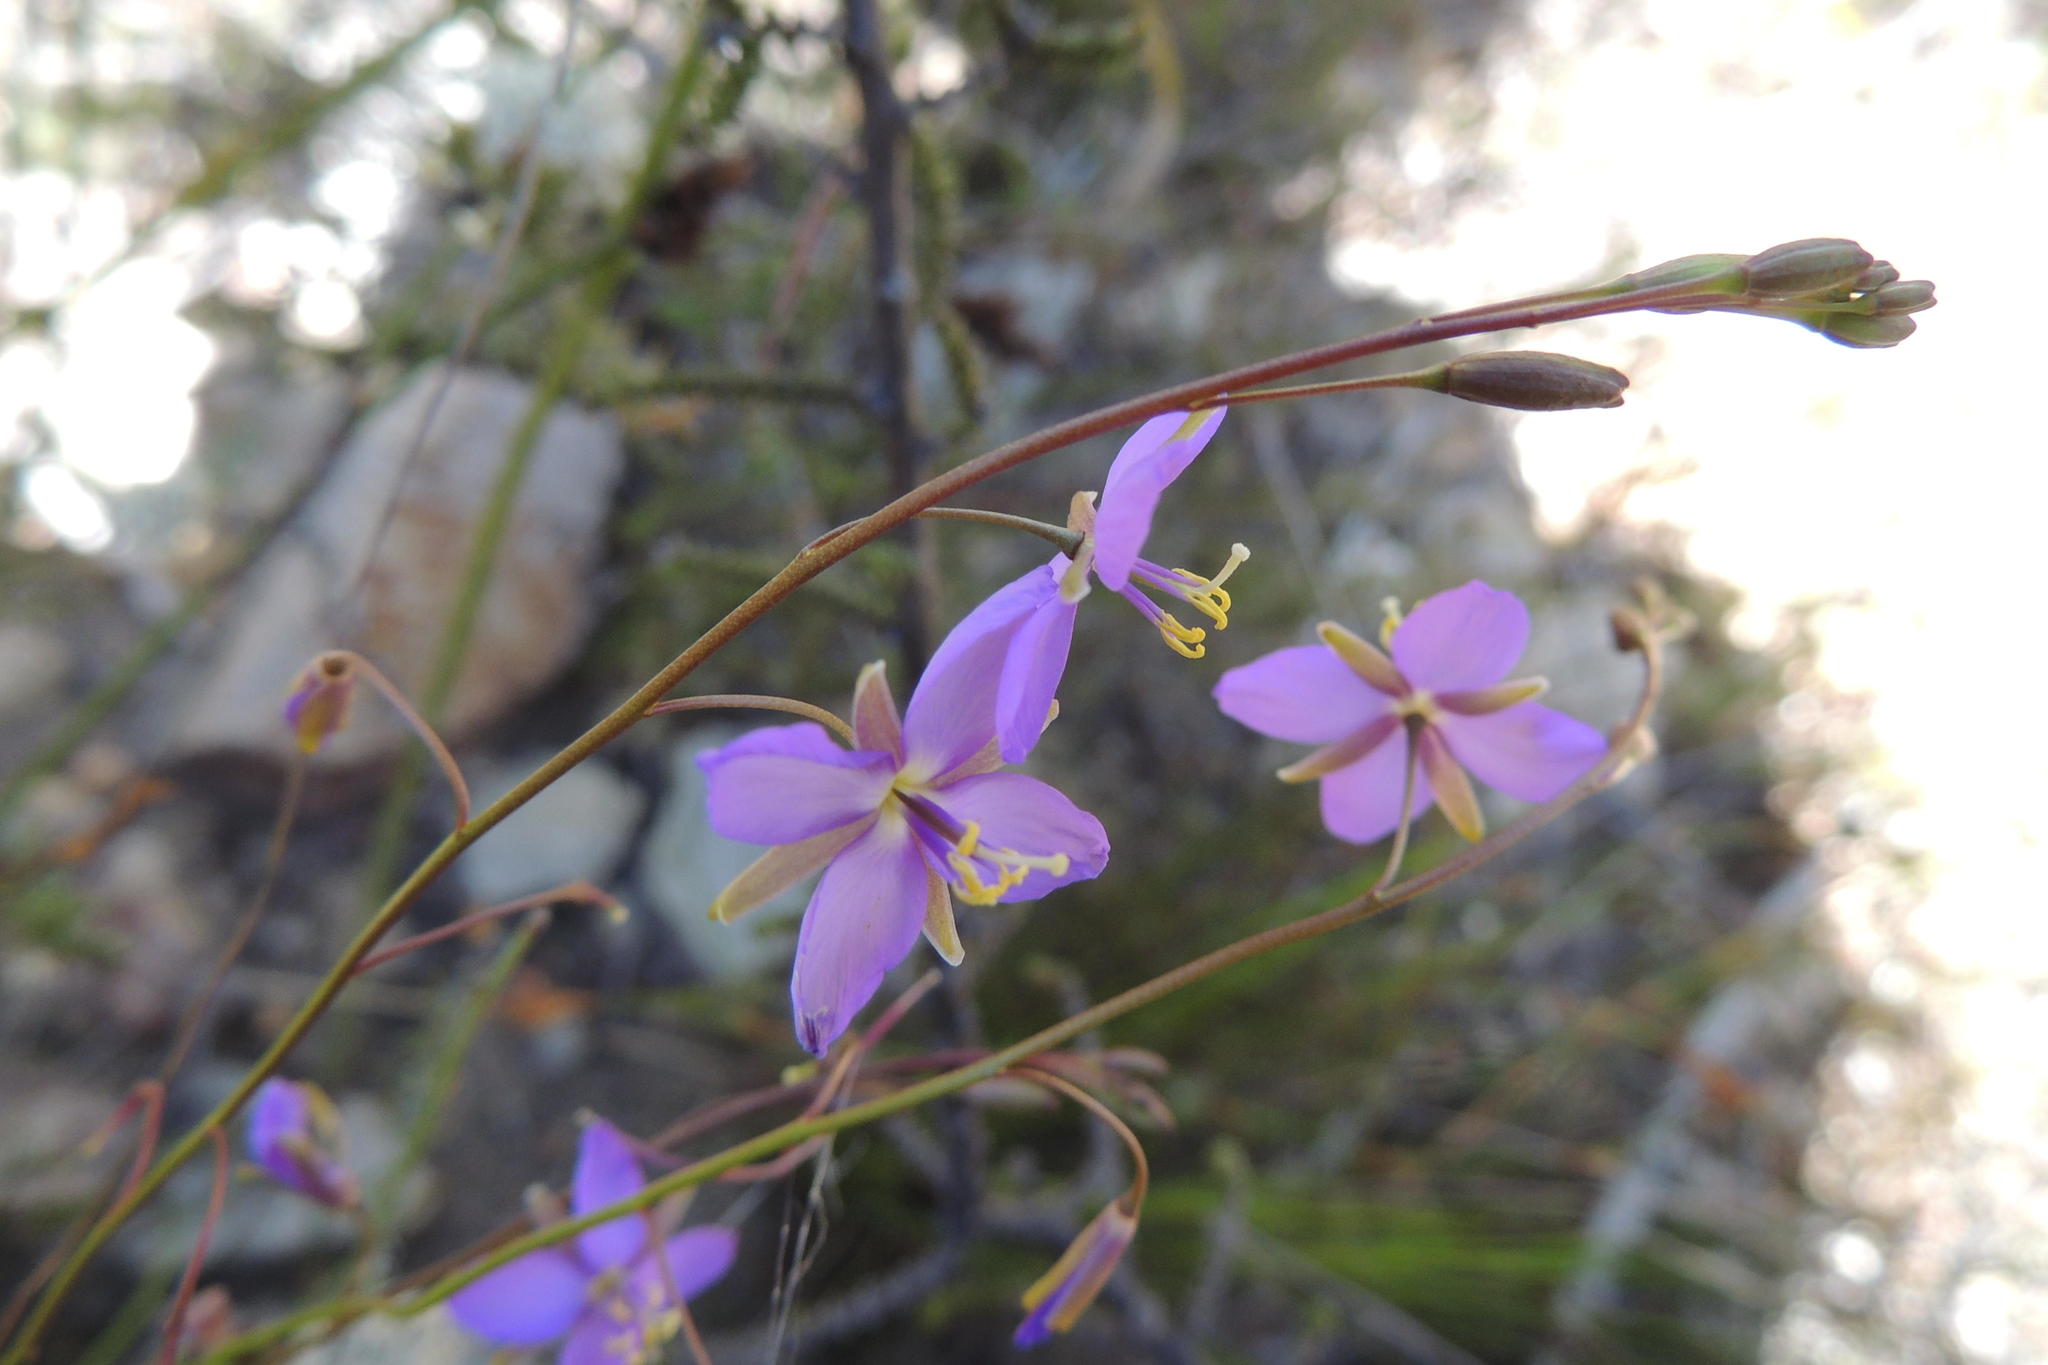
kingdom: Plantae
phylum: Tracheophyta
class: Magnoliopsida
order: Brassicales
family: Brassicaceae
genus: Heliophila
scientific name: Heliophila subulata
